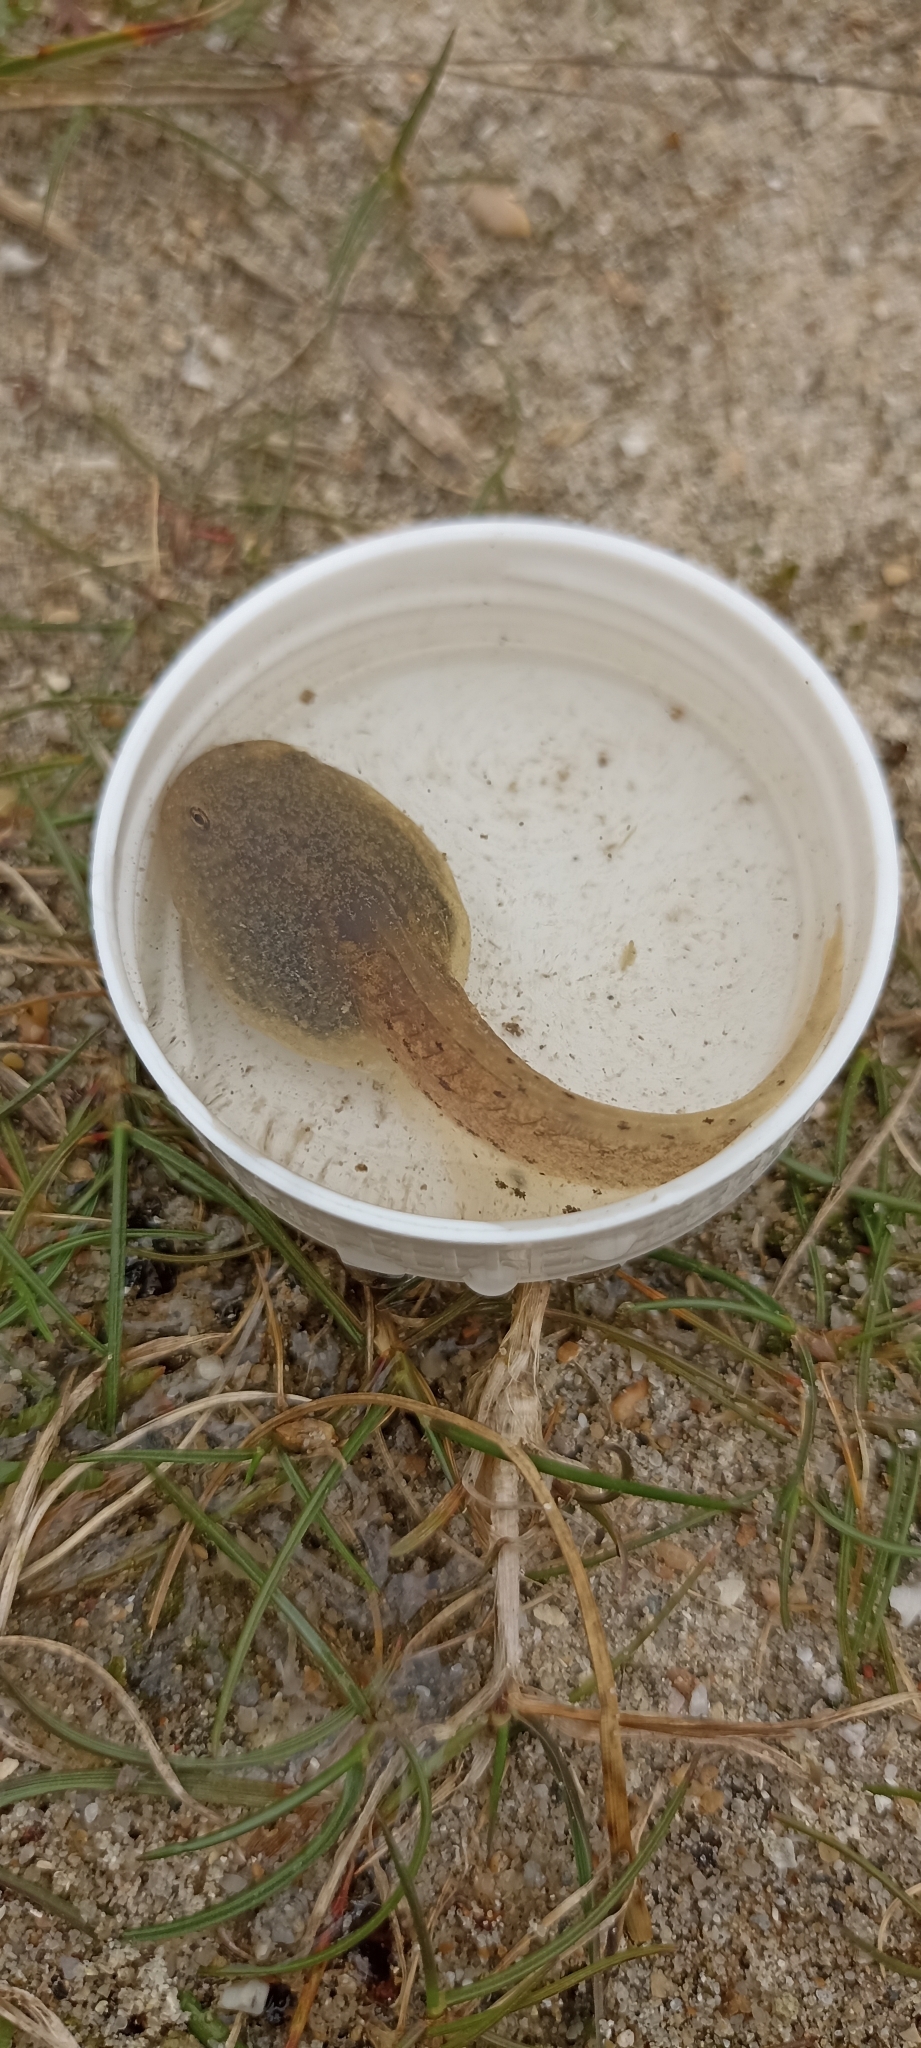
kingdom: Animalia
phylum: Chordata
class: Amphibia
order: Anura
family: Alytidae
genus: Alytes
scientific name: Alytes obstetricans
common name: Midwife toad
